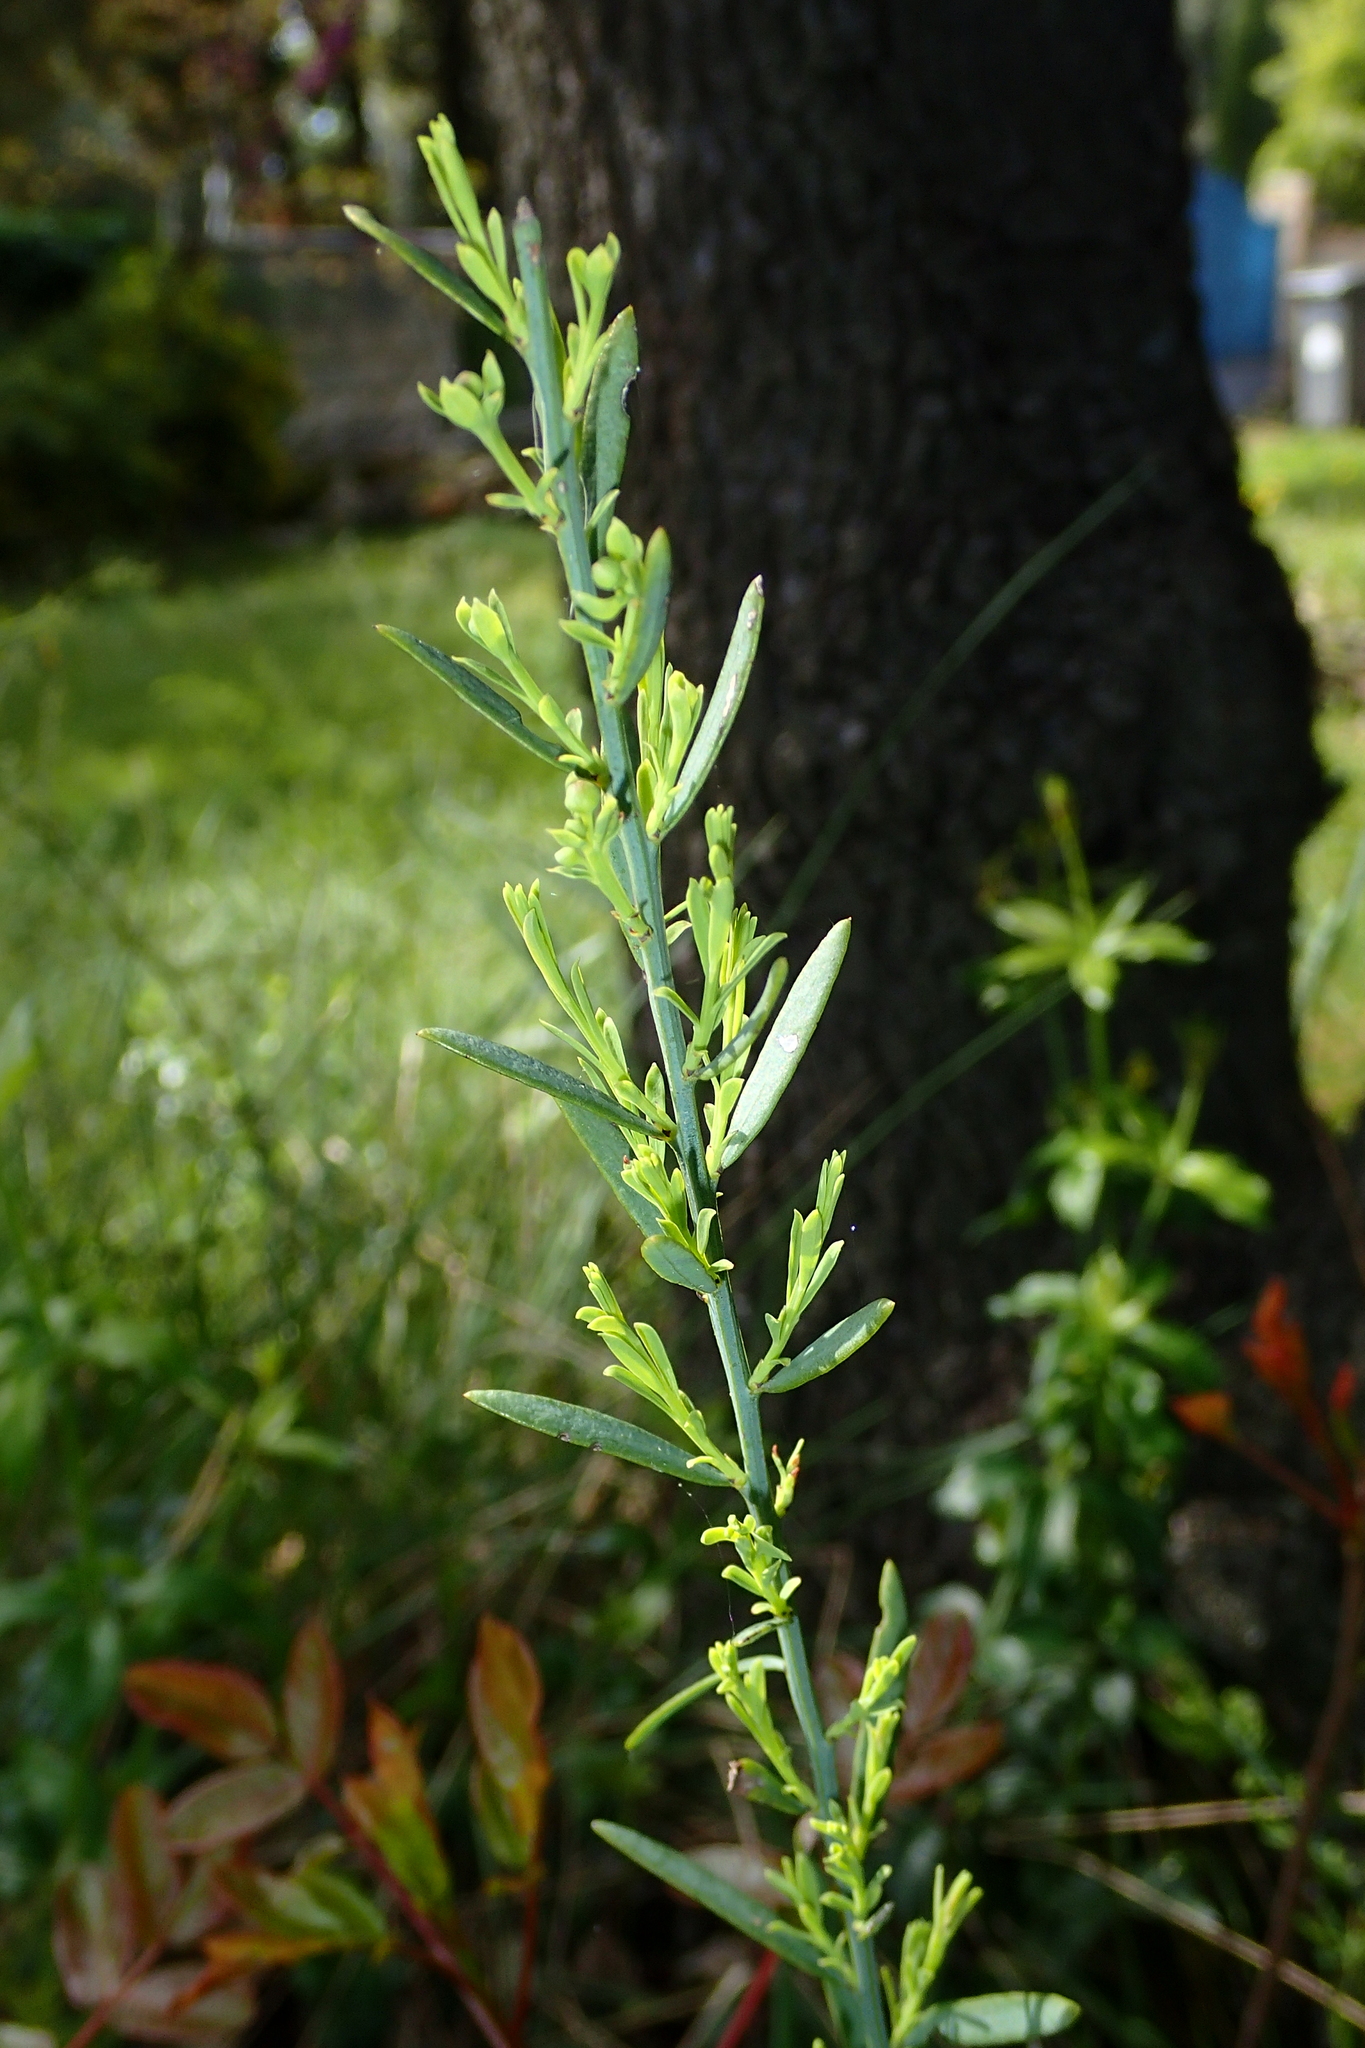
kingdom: Plantae
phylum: Tracheophyta
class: Magnoliopsida
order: Santalales
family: Santalaceae
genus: Osyris
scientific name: Osyris alba
